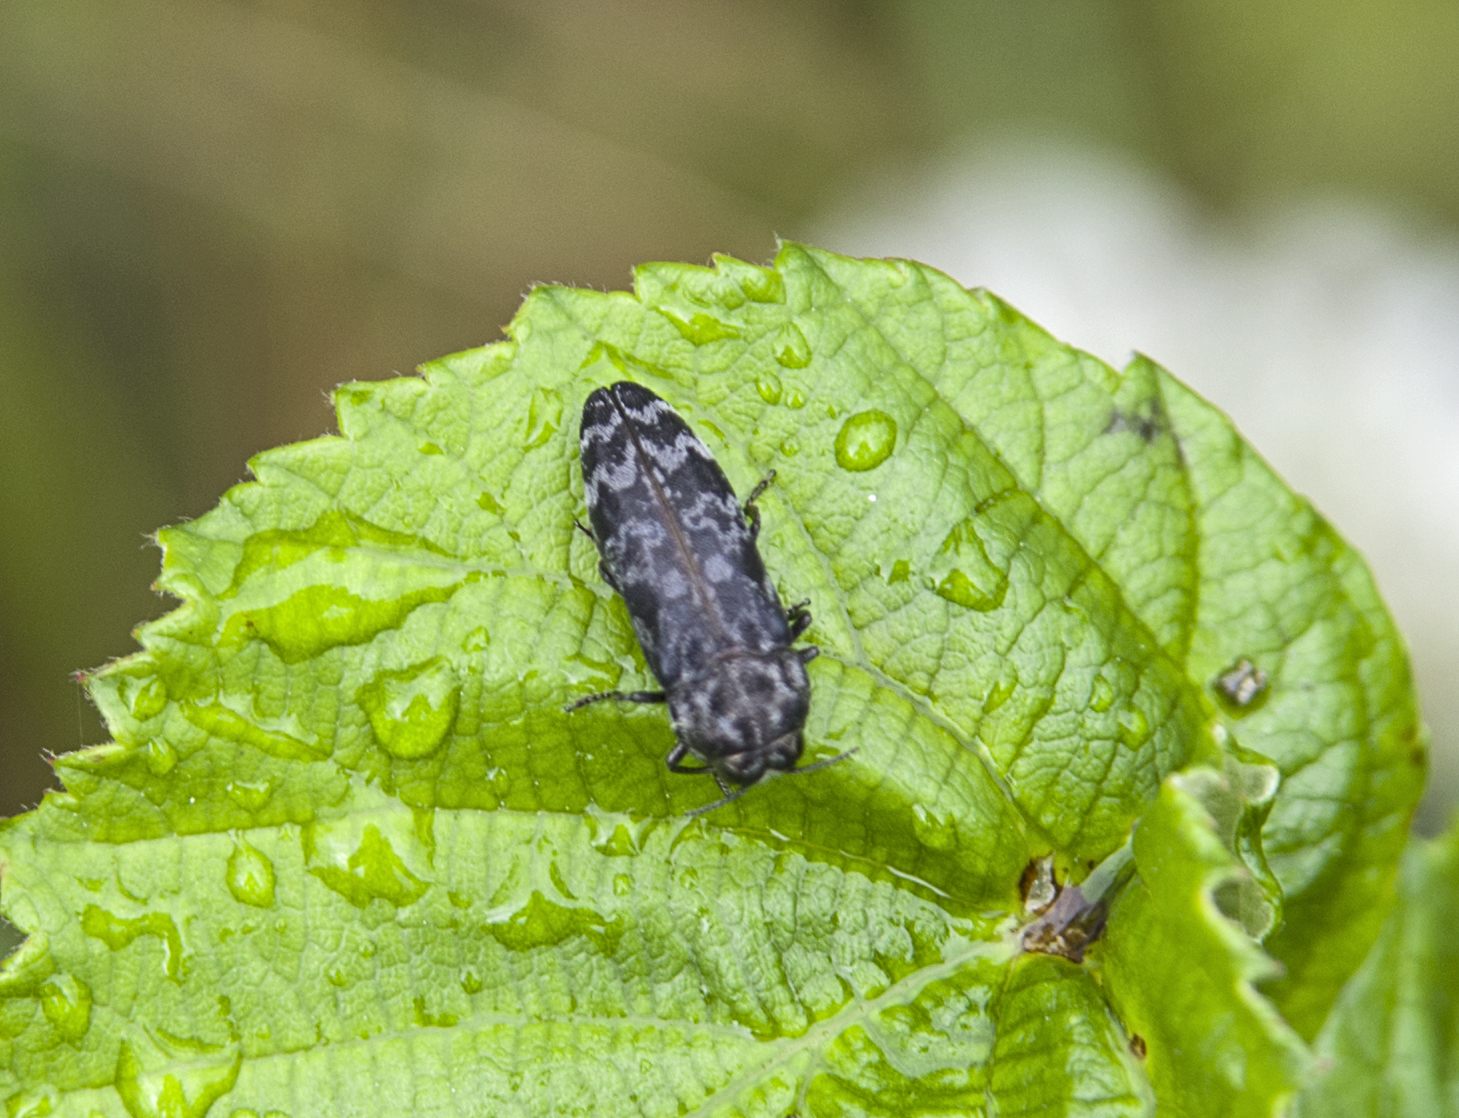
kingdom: Animalia
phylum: Arthropoda
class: Insecta
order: Coleoptera
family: Buprestidae
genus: Coraebus
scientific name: Coraebus rubi
